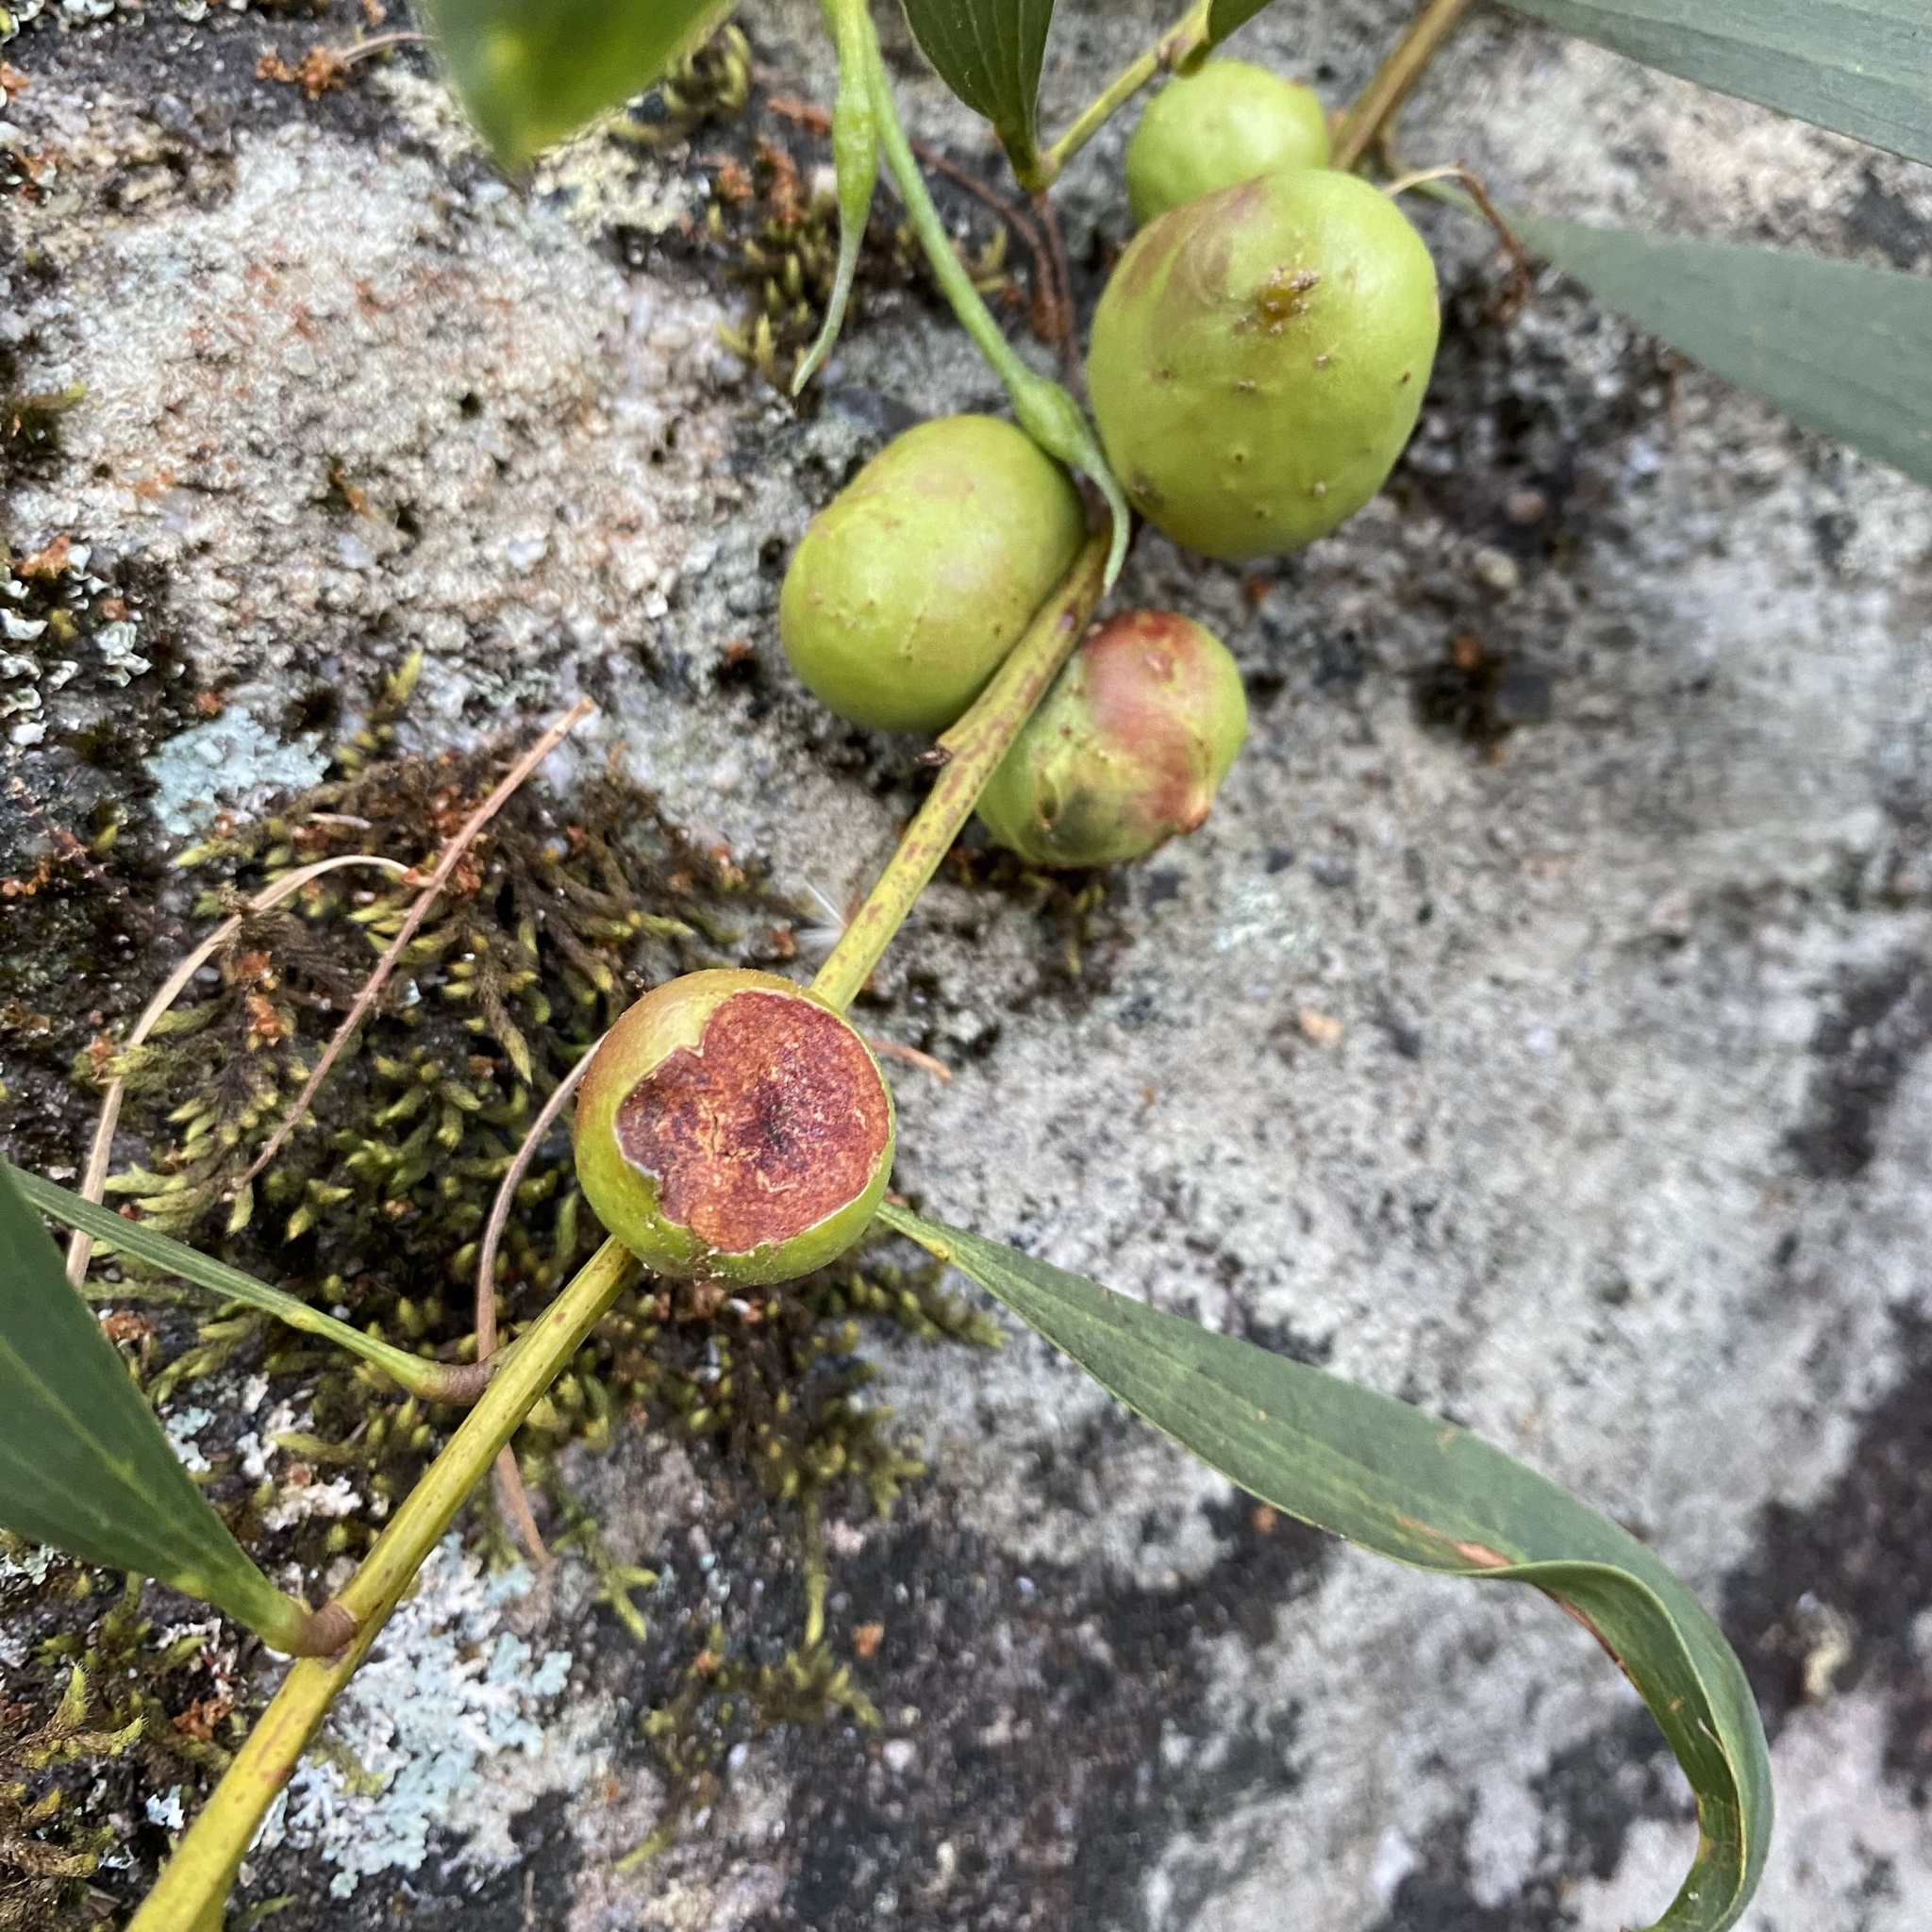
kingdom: Animalia
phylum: Arthropoda
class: Insecta
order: Hymenoptera
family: Pteromalidae
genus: Trichilogaster
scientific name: Trichilogaster acaciaelongifoliae
